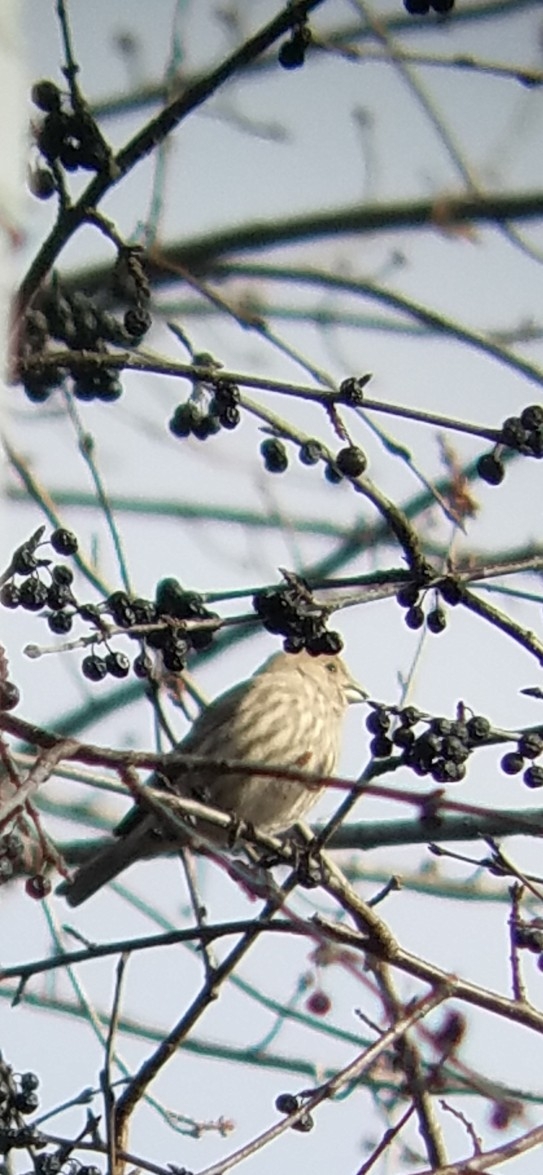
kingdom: Animalia
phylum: Chordata
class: Aves
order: Passeriformes
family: Fringillidae
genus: Haemorhous
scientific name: Haemorhous mexicanus
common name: House finch
